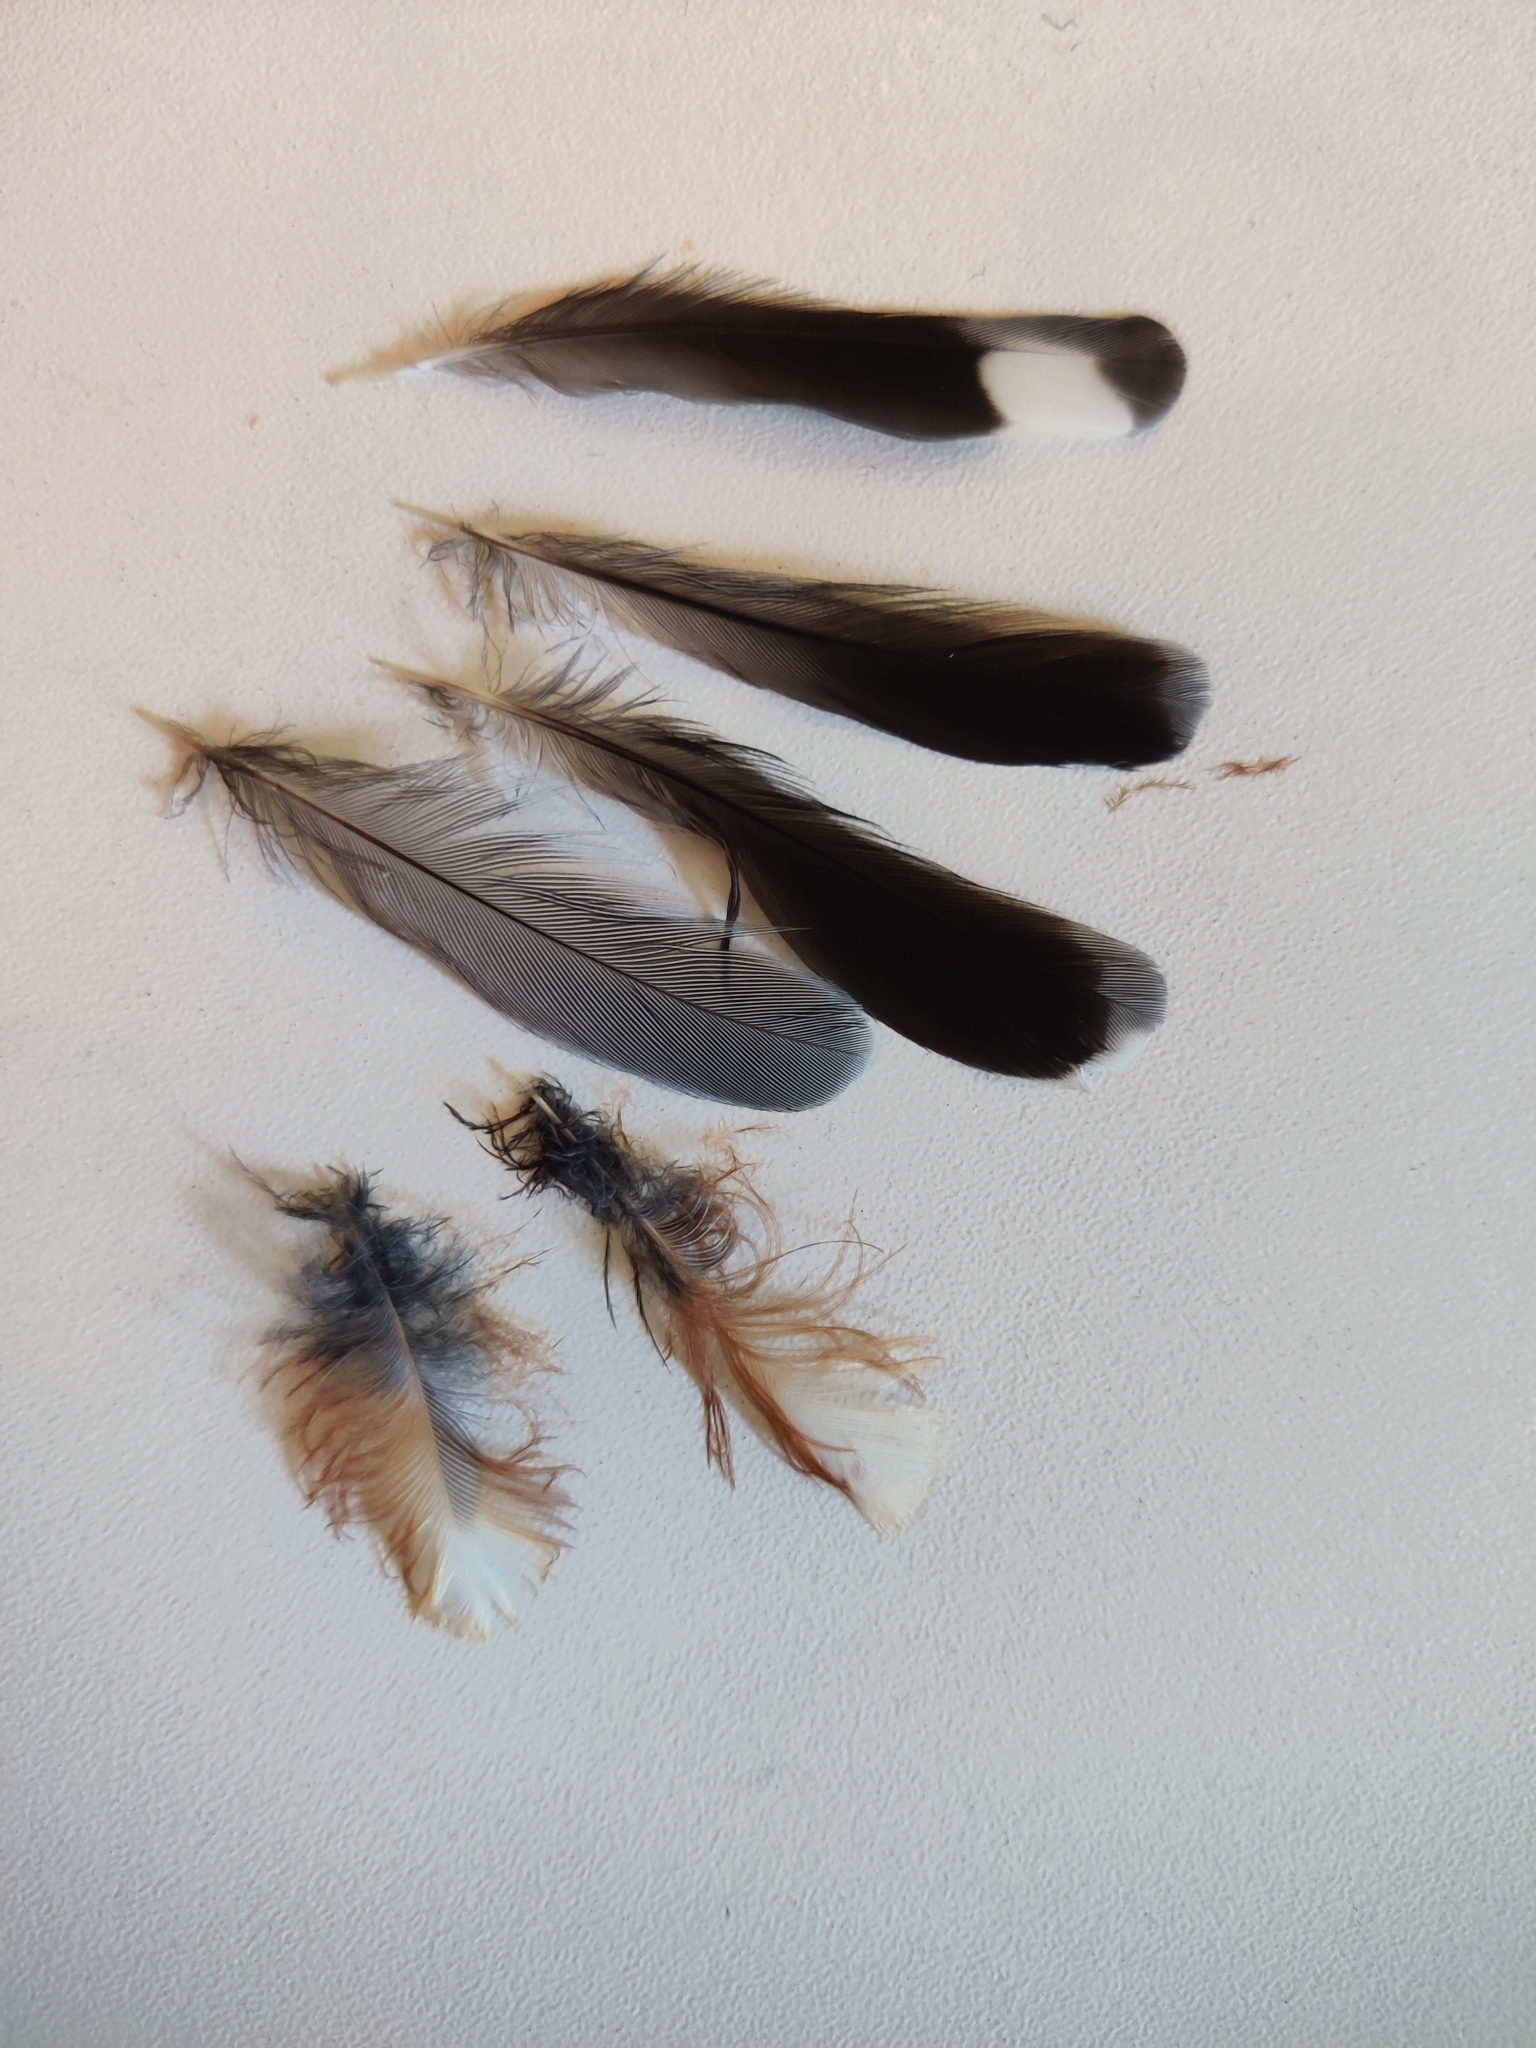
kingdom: Animalia
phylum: Chordata
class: Aves
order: Passeriformes
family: Sittidae
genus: Sitta
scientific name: Sitta europaea
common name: Eurasian nuthatch
